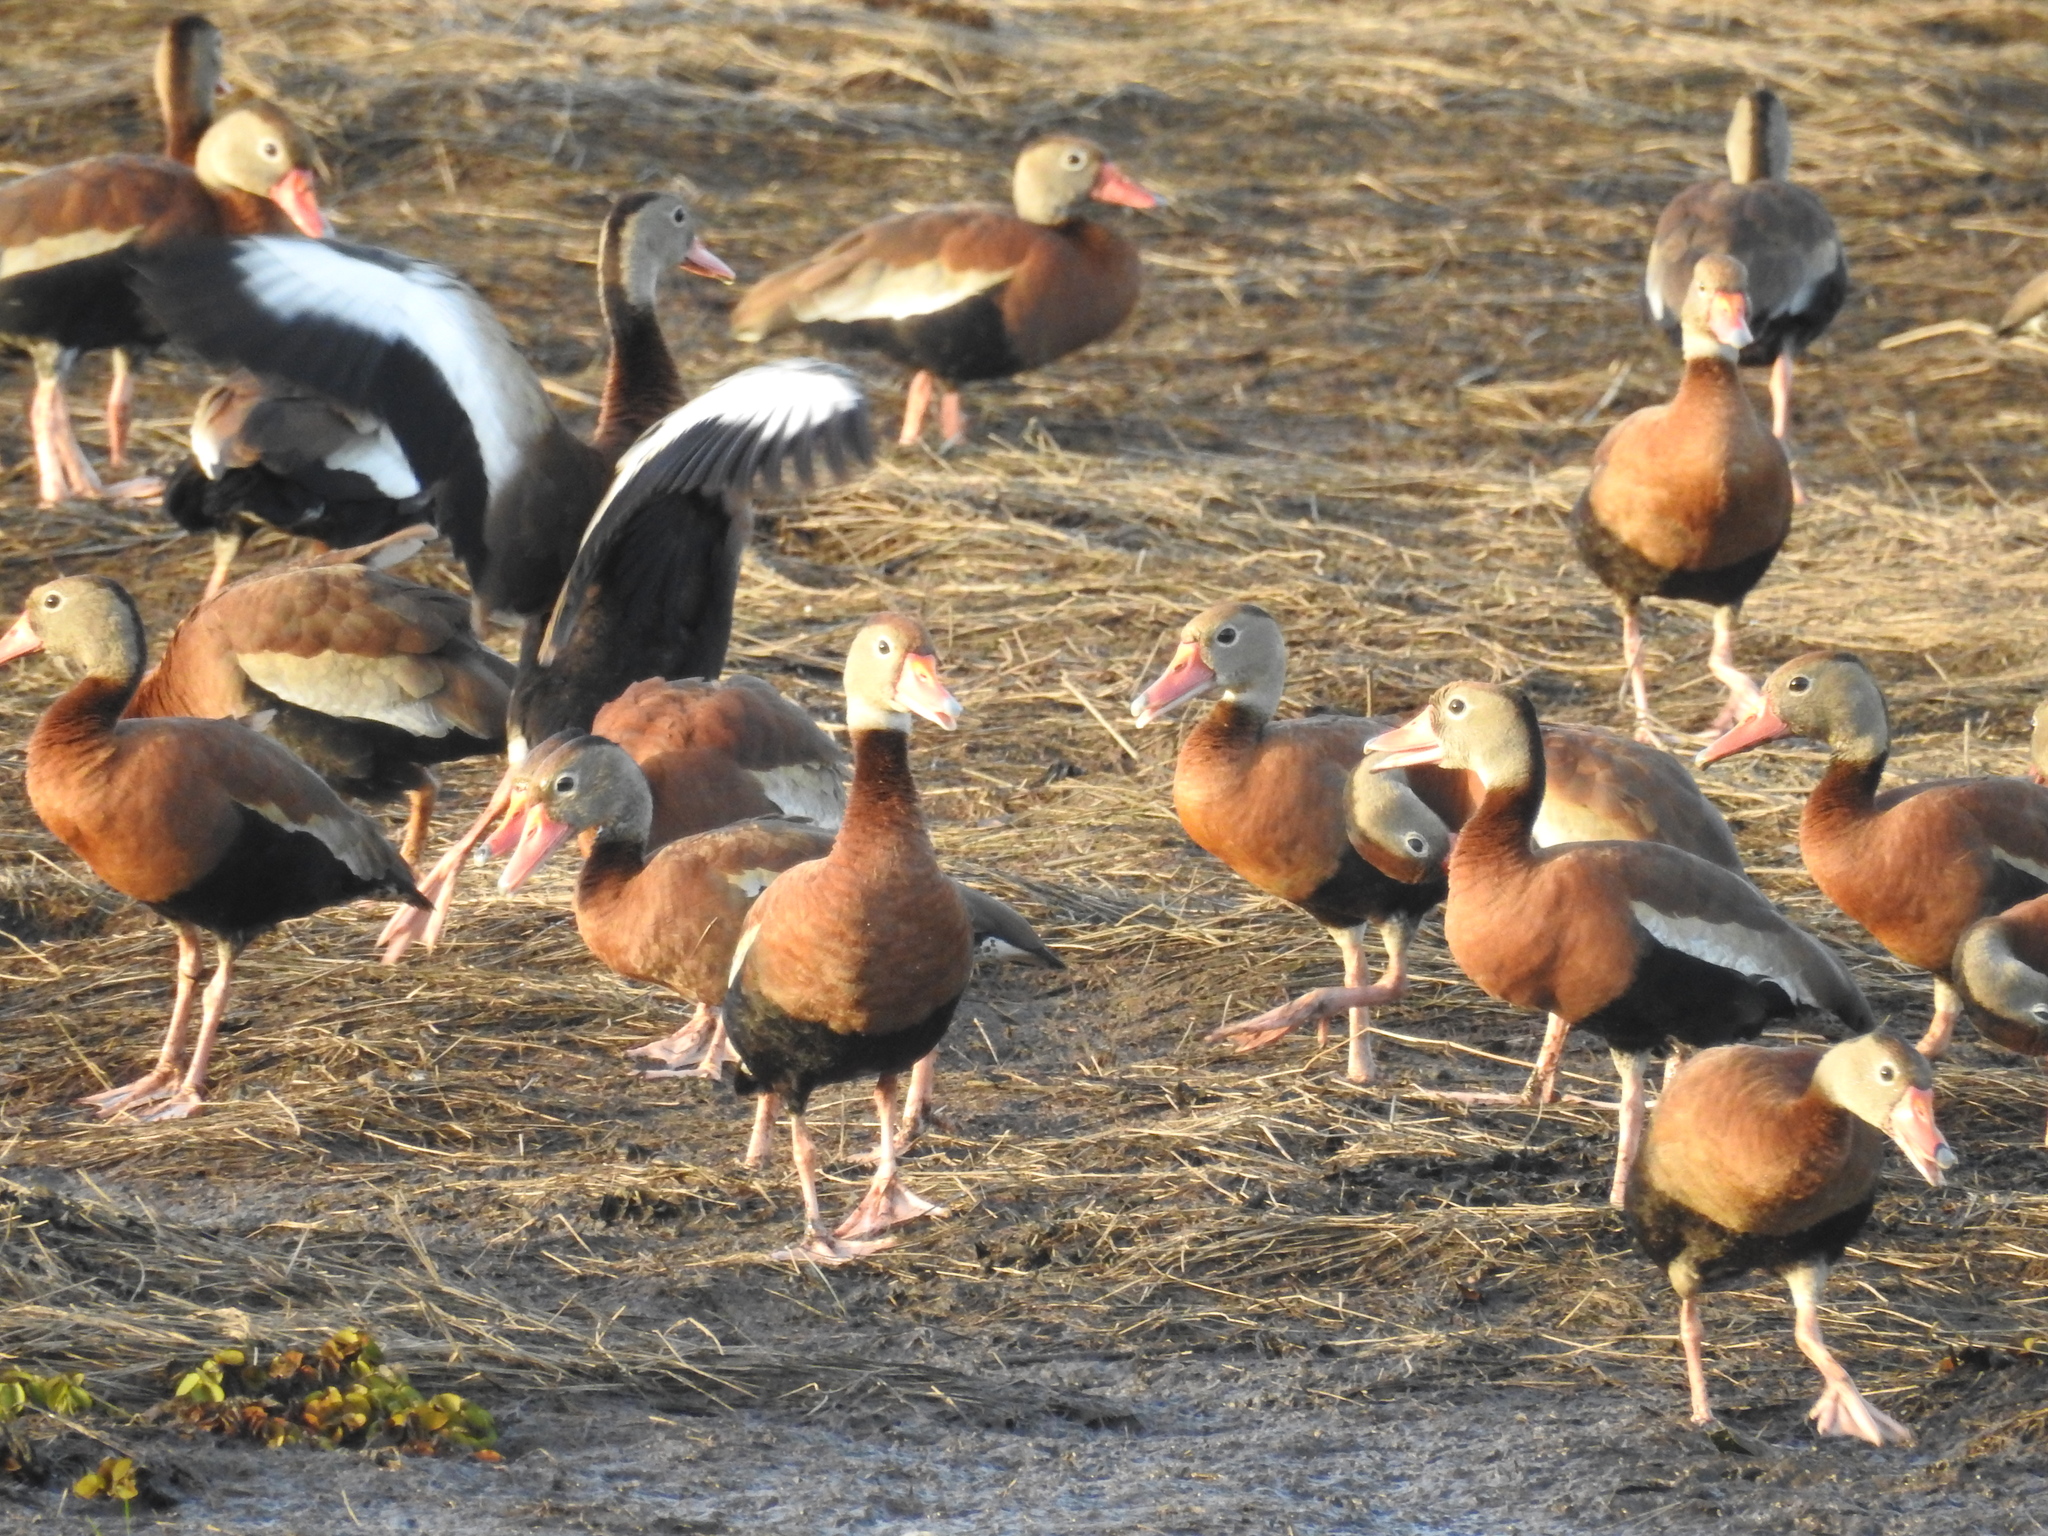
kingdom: Animalia
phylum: Chordata
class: Aves
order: Anseriformes
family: Anatidae
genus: Dendrocygna
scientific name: Dendrocygna autumnalis
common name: Black-bellied whistling duck
